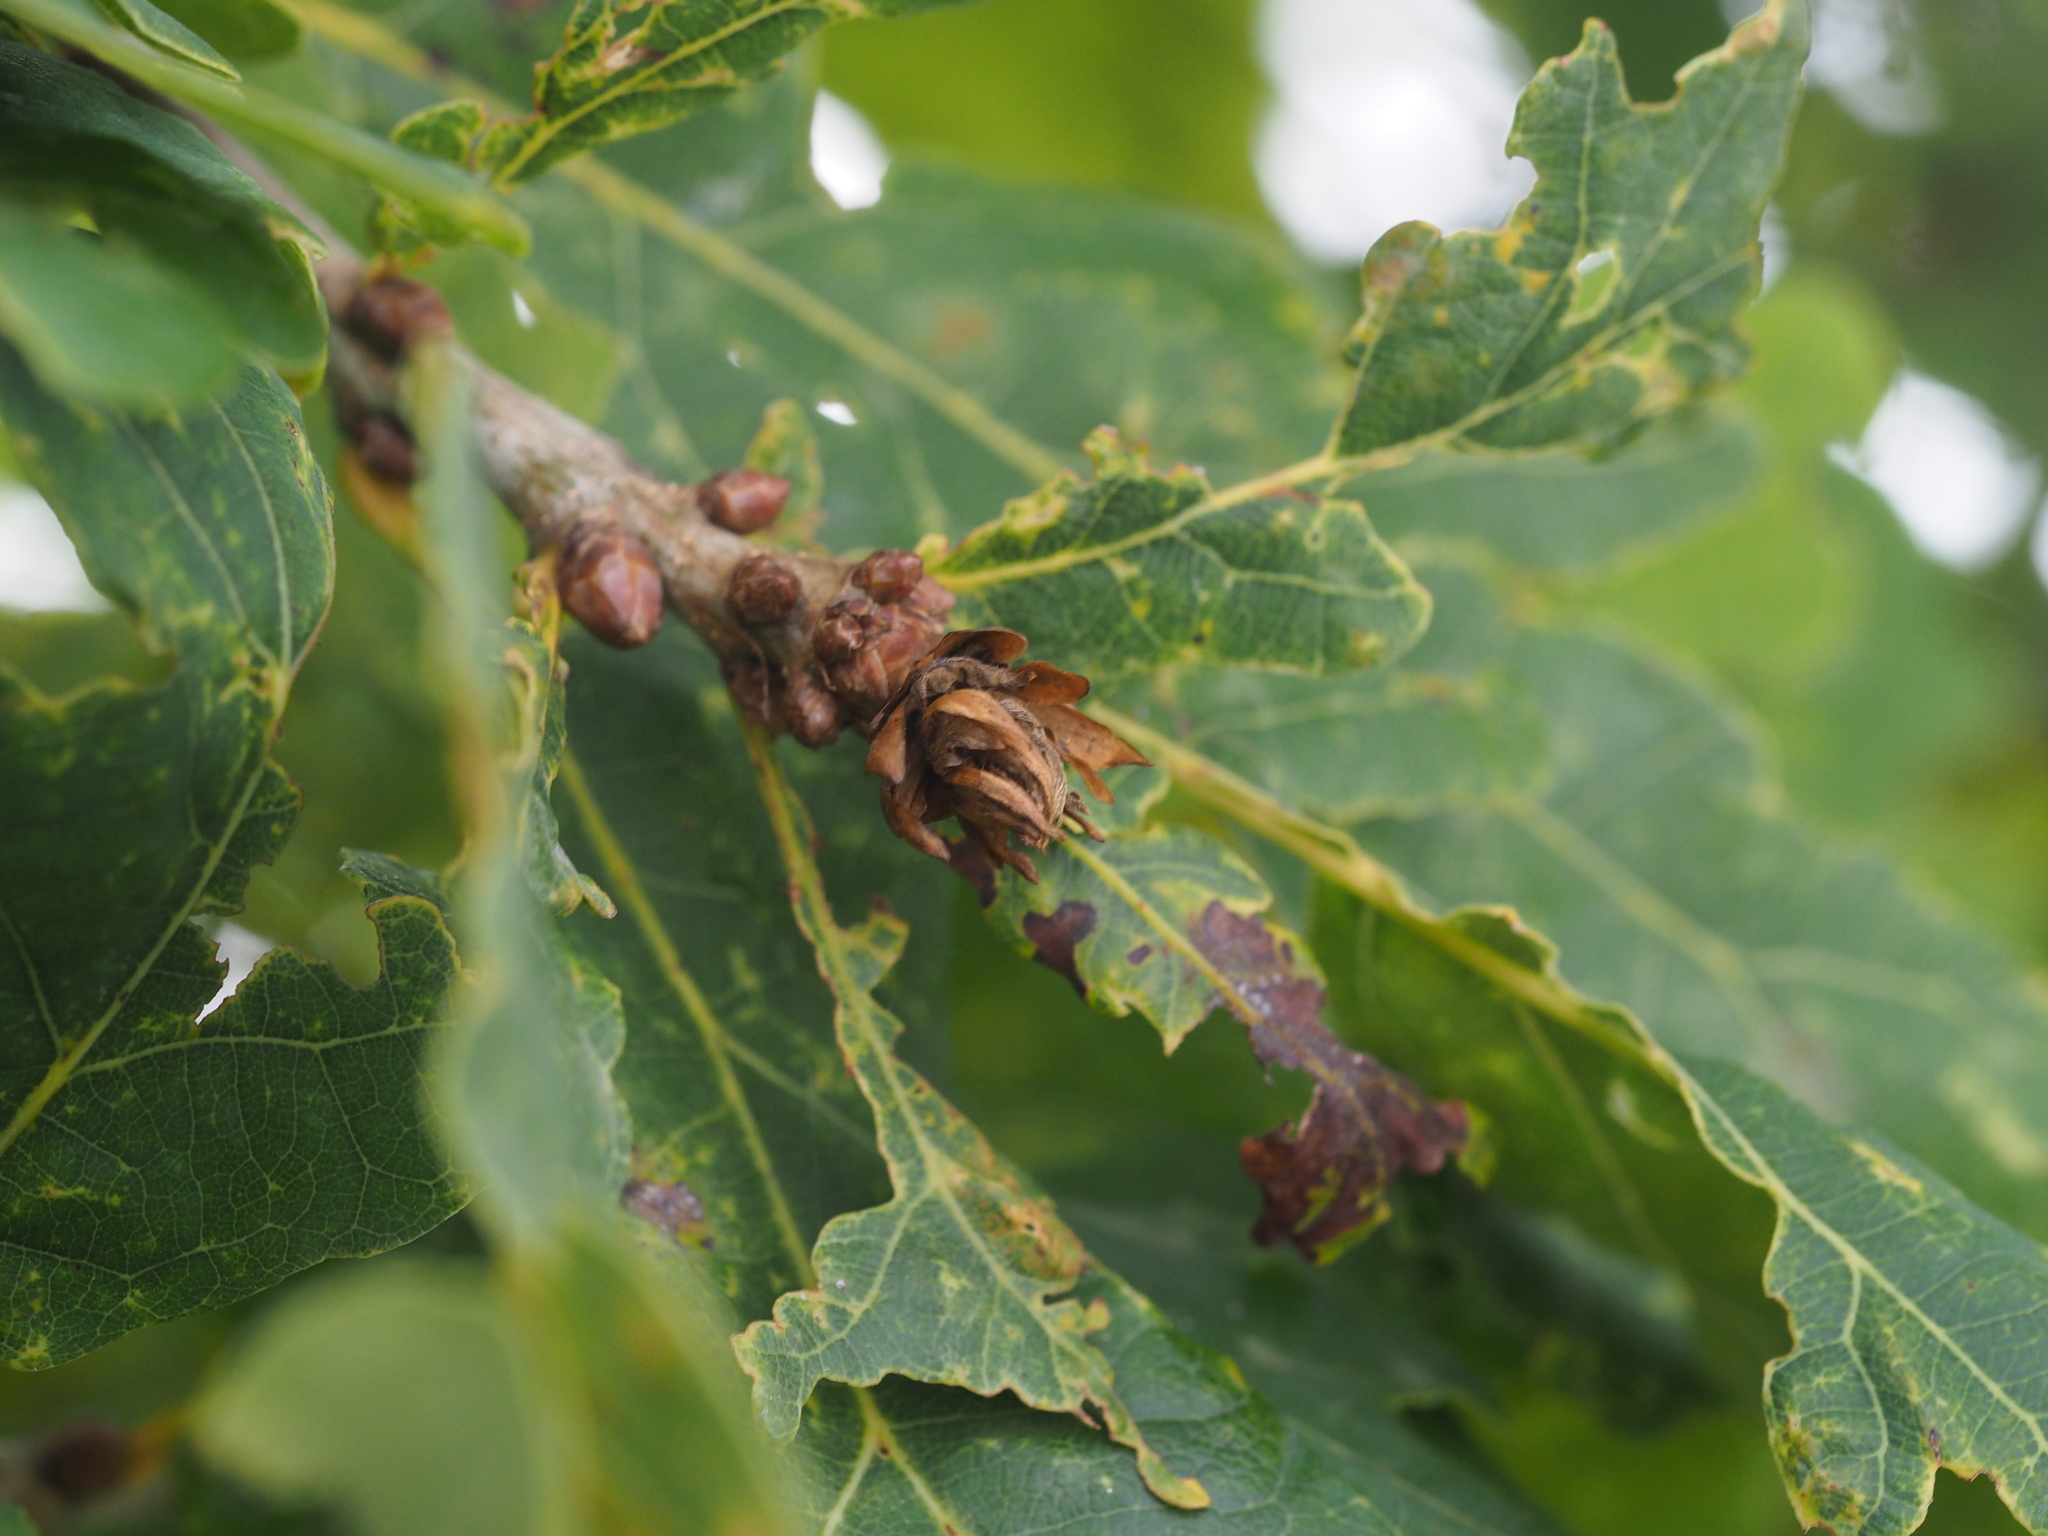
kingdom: Animalia
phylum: Arthropoda
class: Insecta
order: Hymenoptera
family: Cynipidae
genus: Andricus
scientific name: Andricus foecundatrix
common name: Artichoke gall
